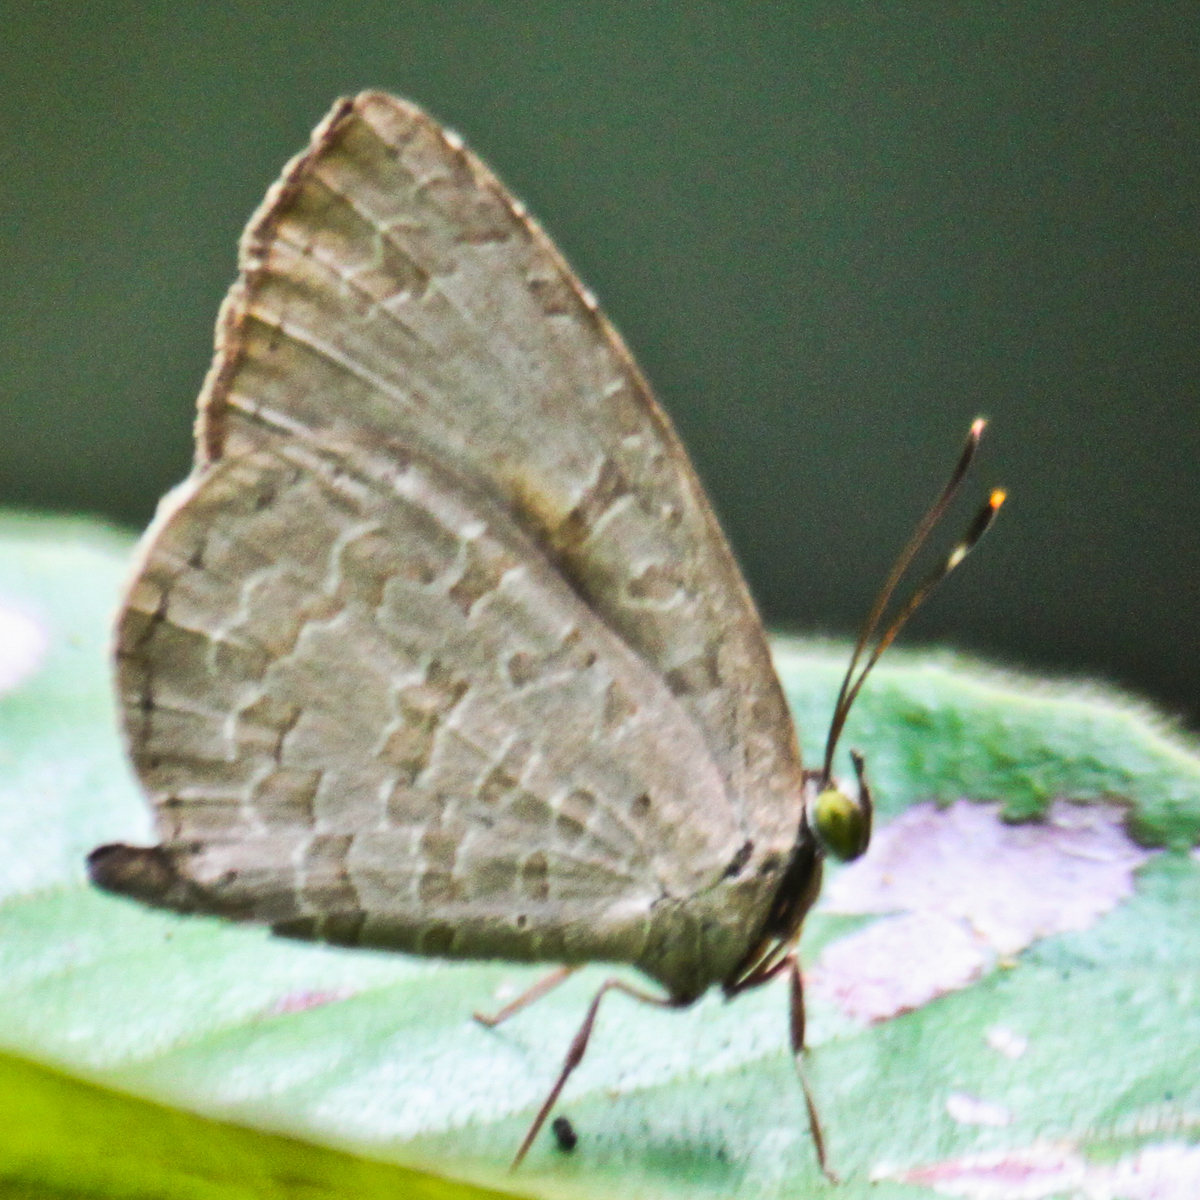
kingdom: Animalia
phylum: Arthropoda
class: Insecta
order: Lepidoptera
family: Lycaenidae
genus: Miletus
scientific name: Miletus chinensis
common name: Common brownie
